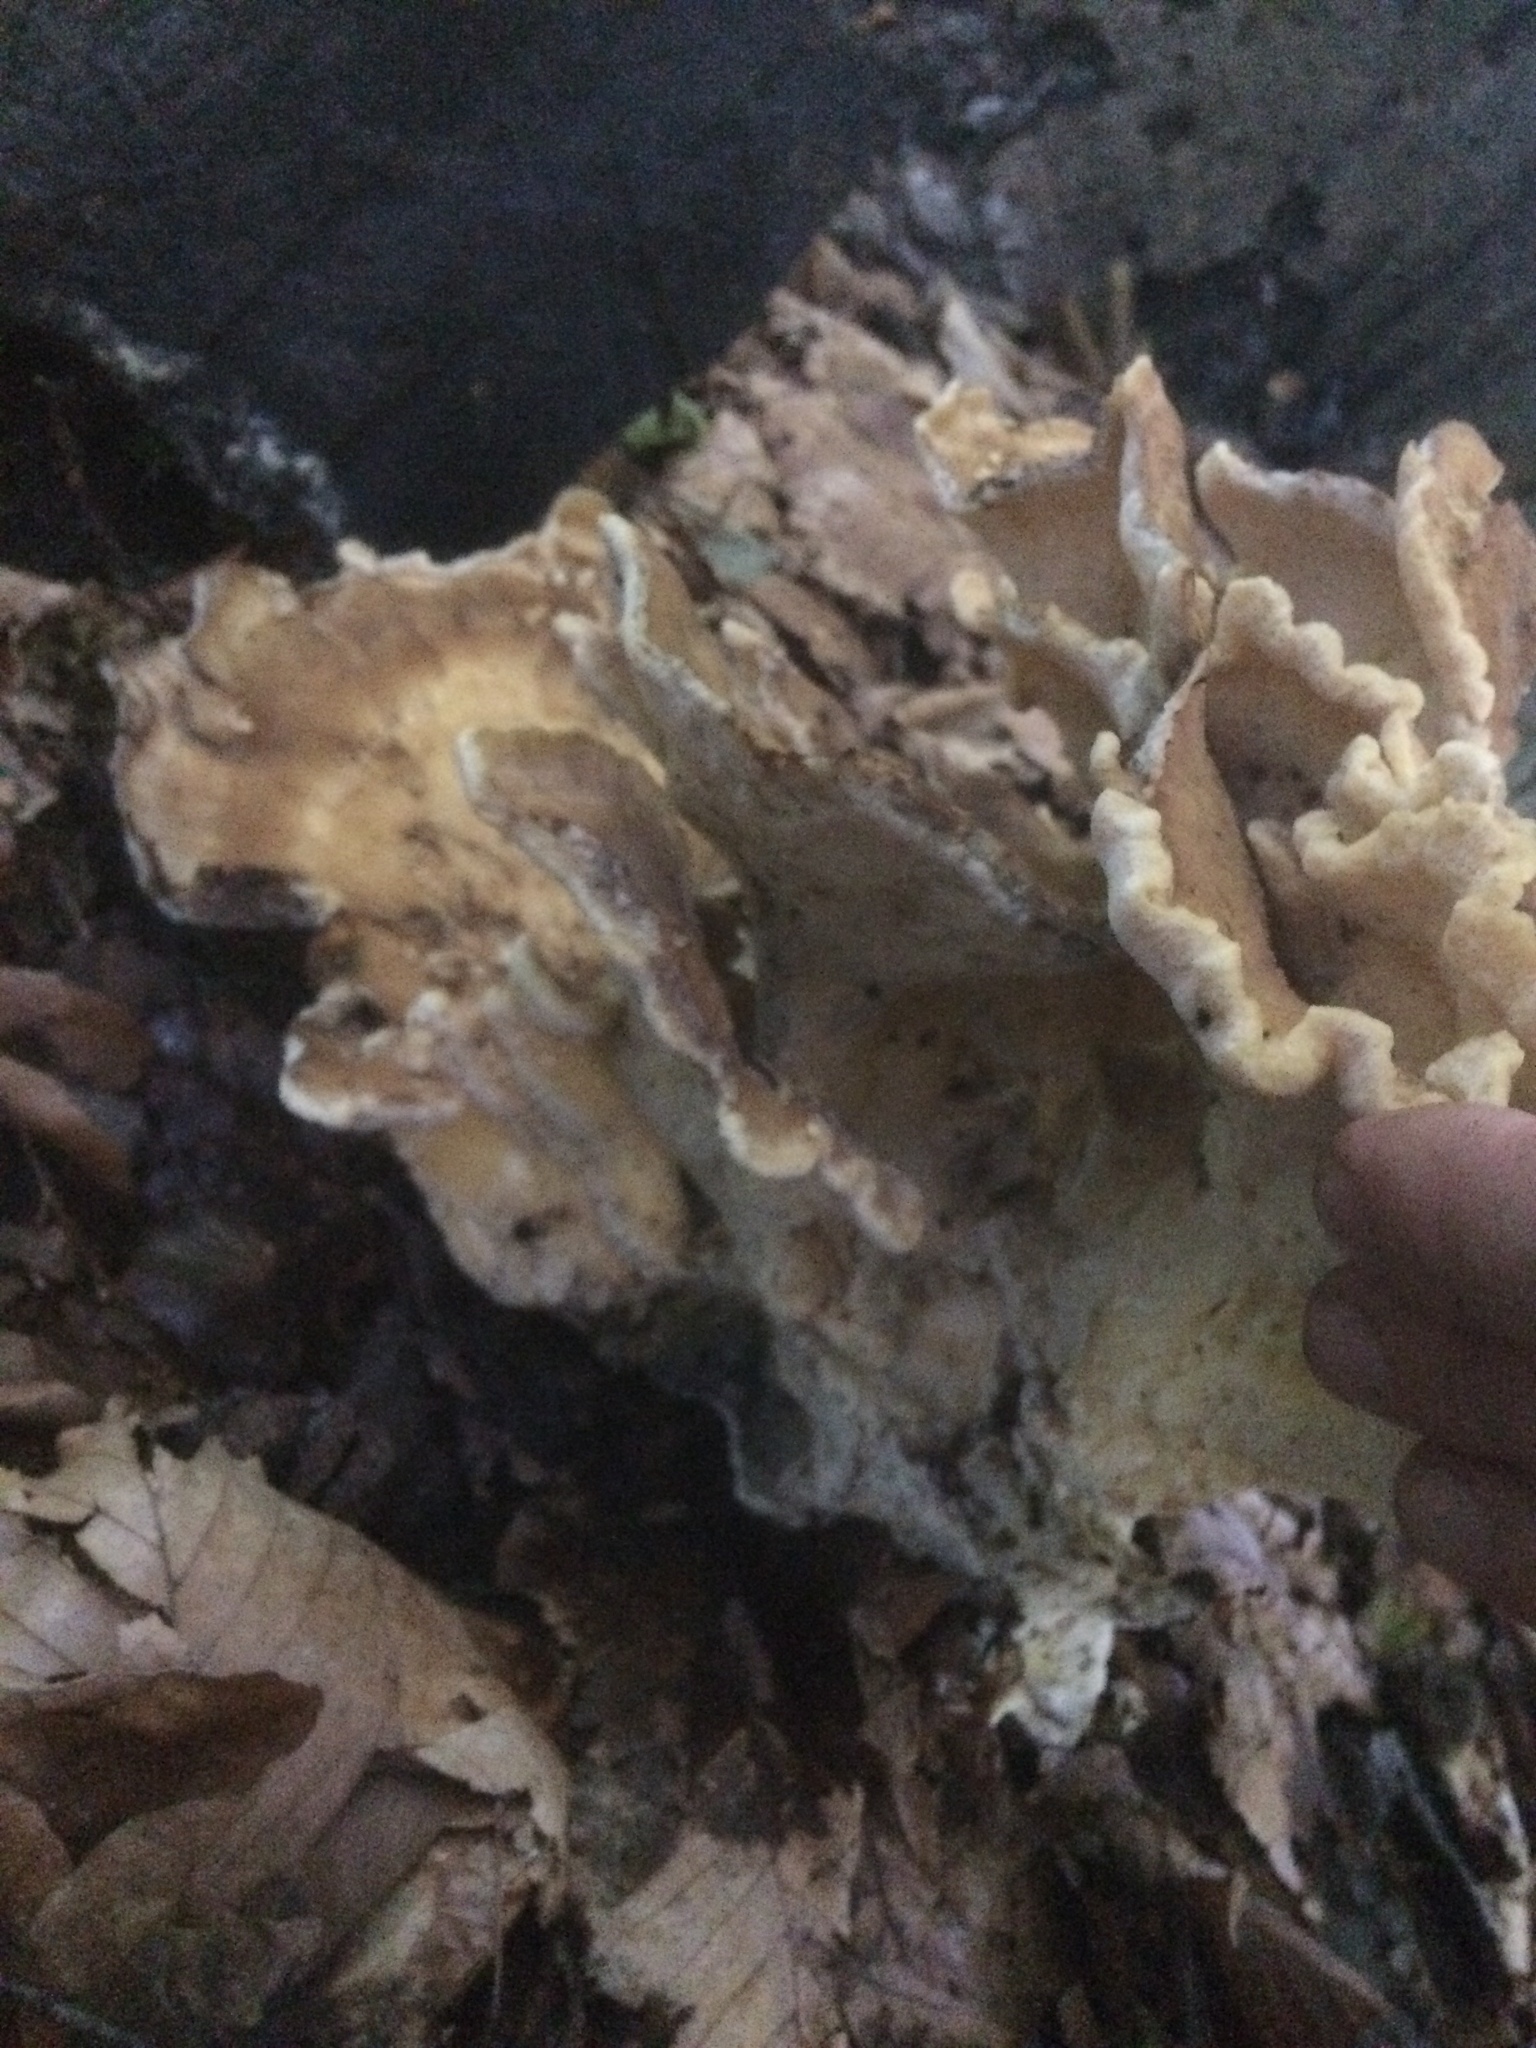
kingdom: Fungi
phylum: Basidiomycota
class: Agaricomycetes
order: Polyporales
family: Meripilaceae
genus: Meripilus
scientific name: Meripilus giganteus
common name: Giant polypore
